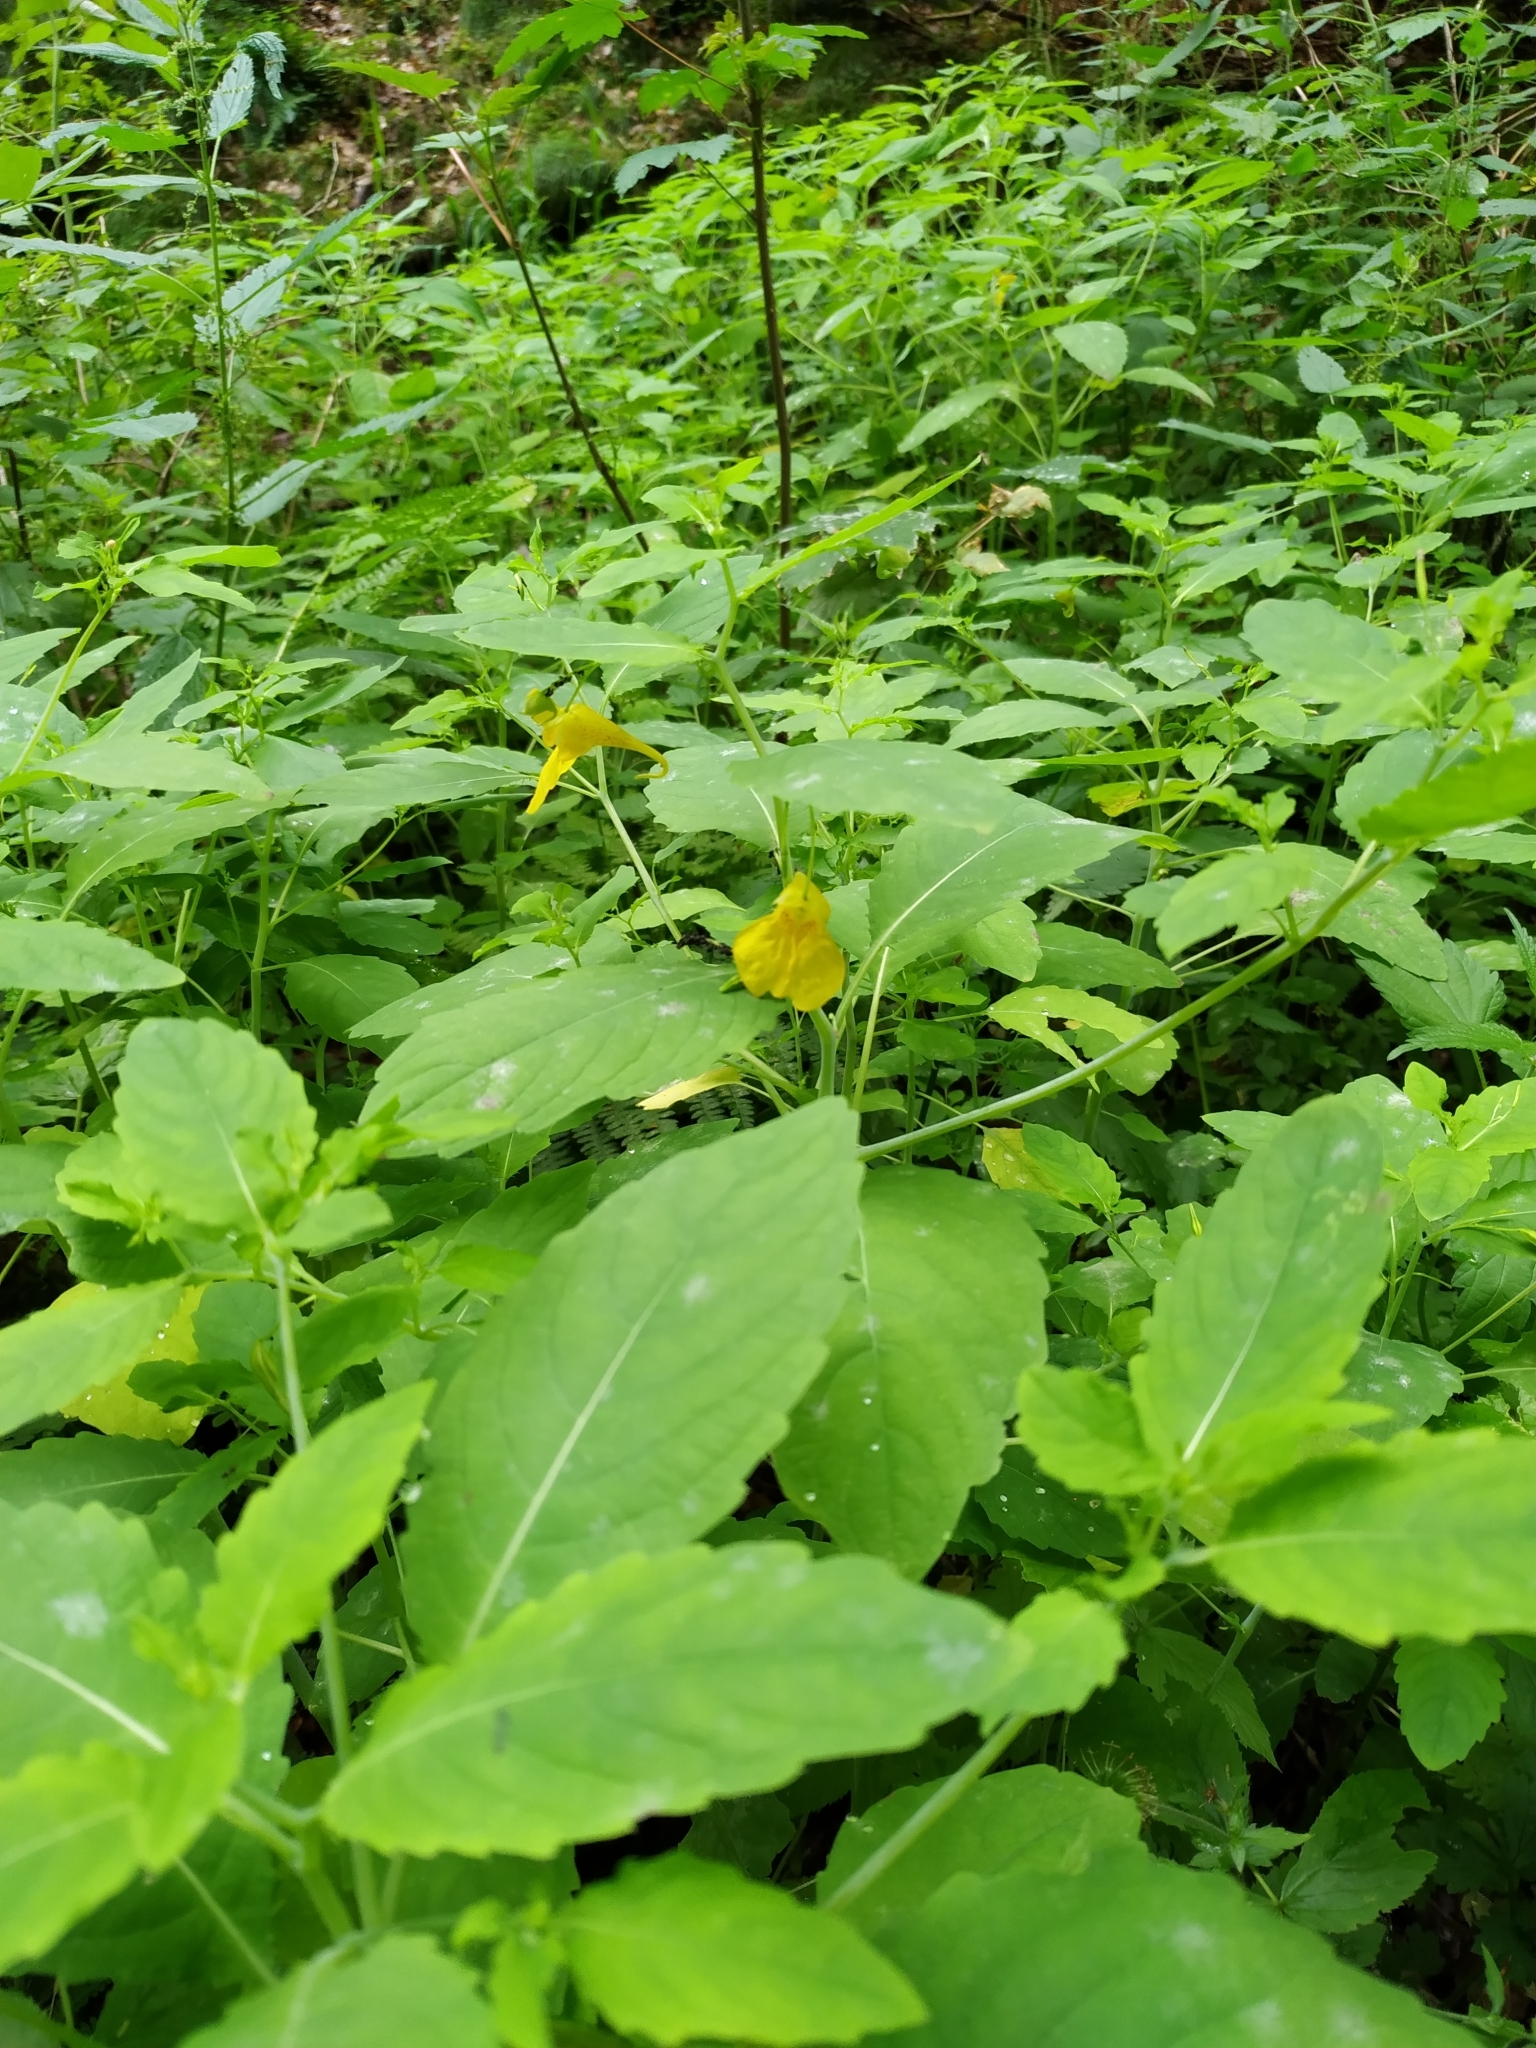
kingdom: Plantae
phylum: Tracheophyta
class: Magnoliopsida
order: Ericales
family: Balsaminaceae
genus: Impatiens
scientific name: Impatiens noli-tangere
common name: Touch-me-not balsam
